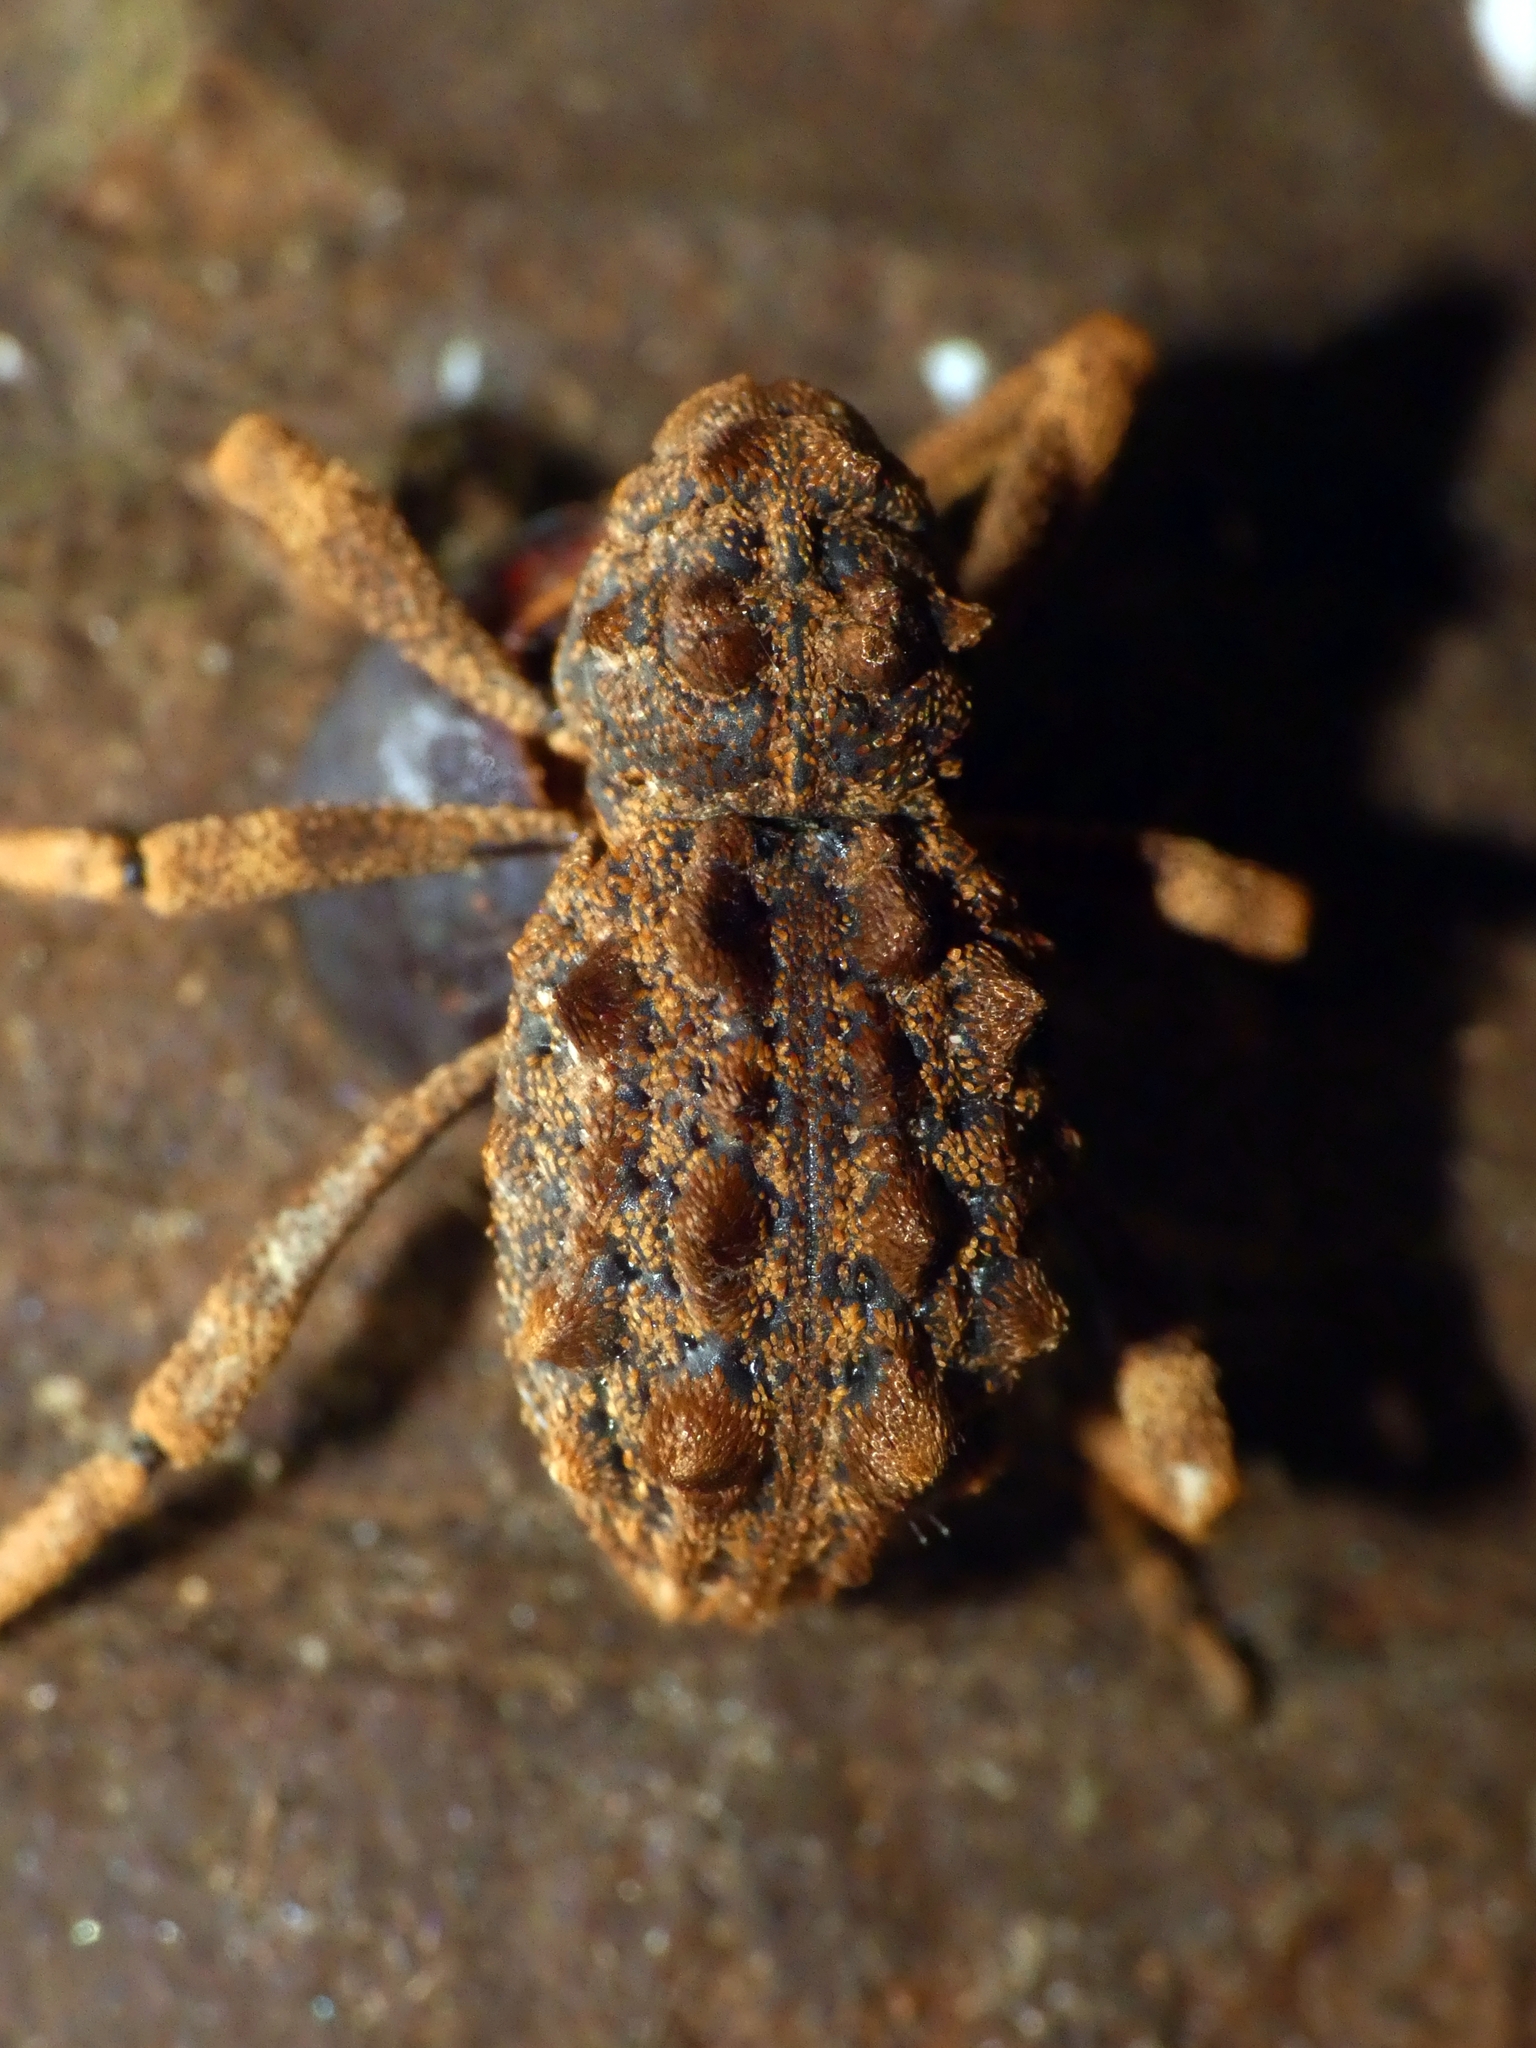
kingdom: Animalia
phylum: Arthropoda
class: Insecta
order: Coleoptera
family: Curculionidae
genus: Poropterus
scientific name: Poropterus magnus
